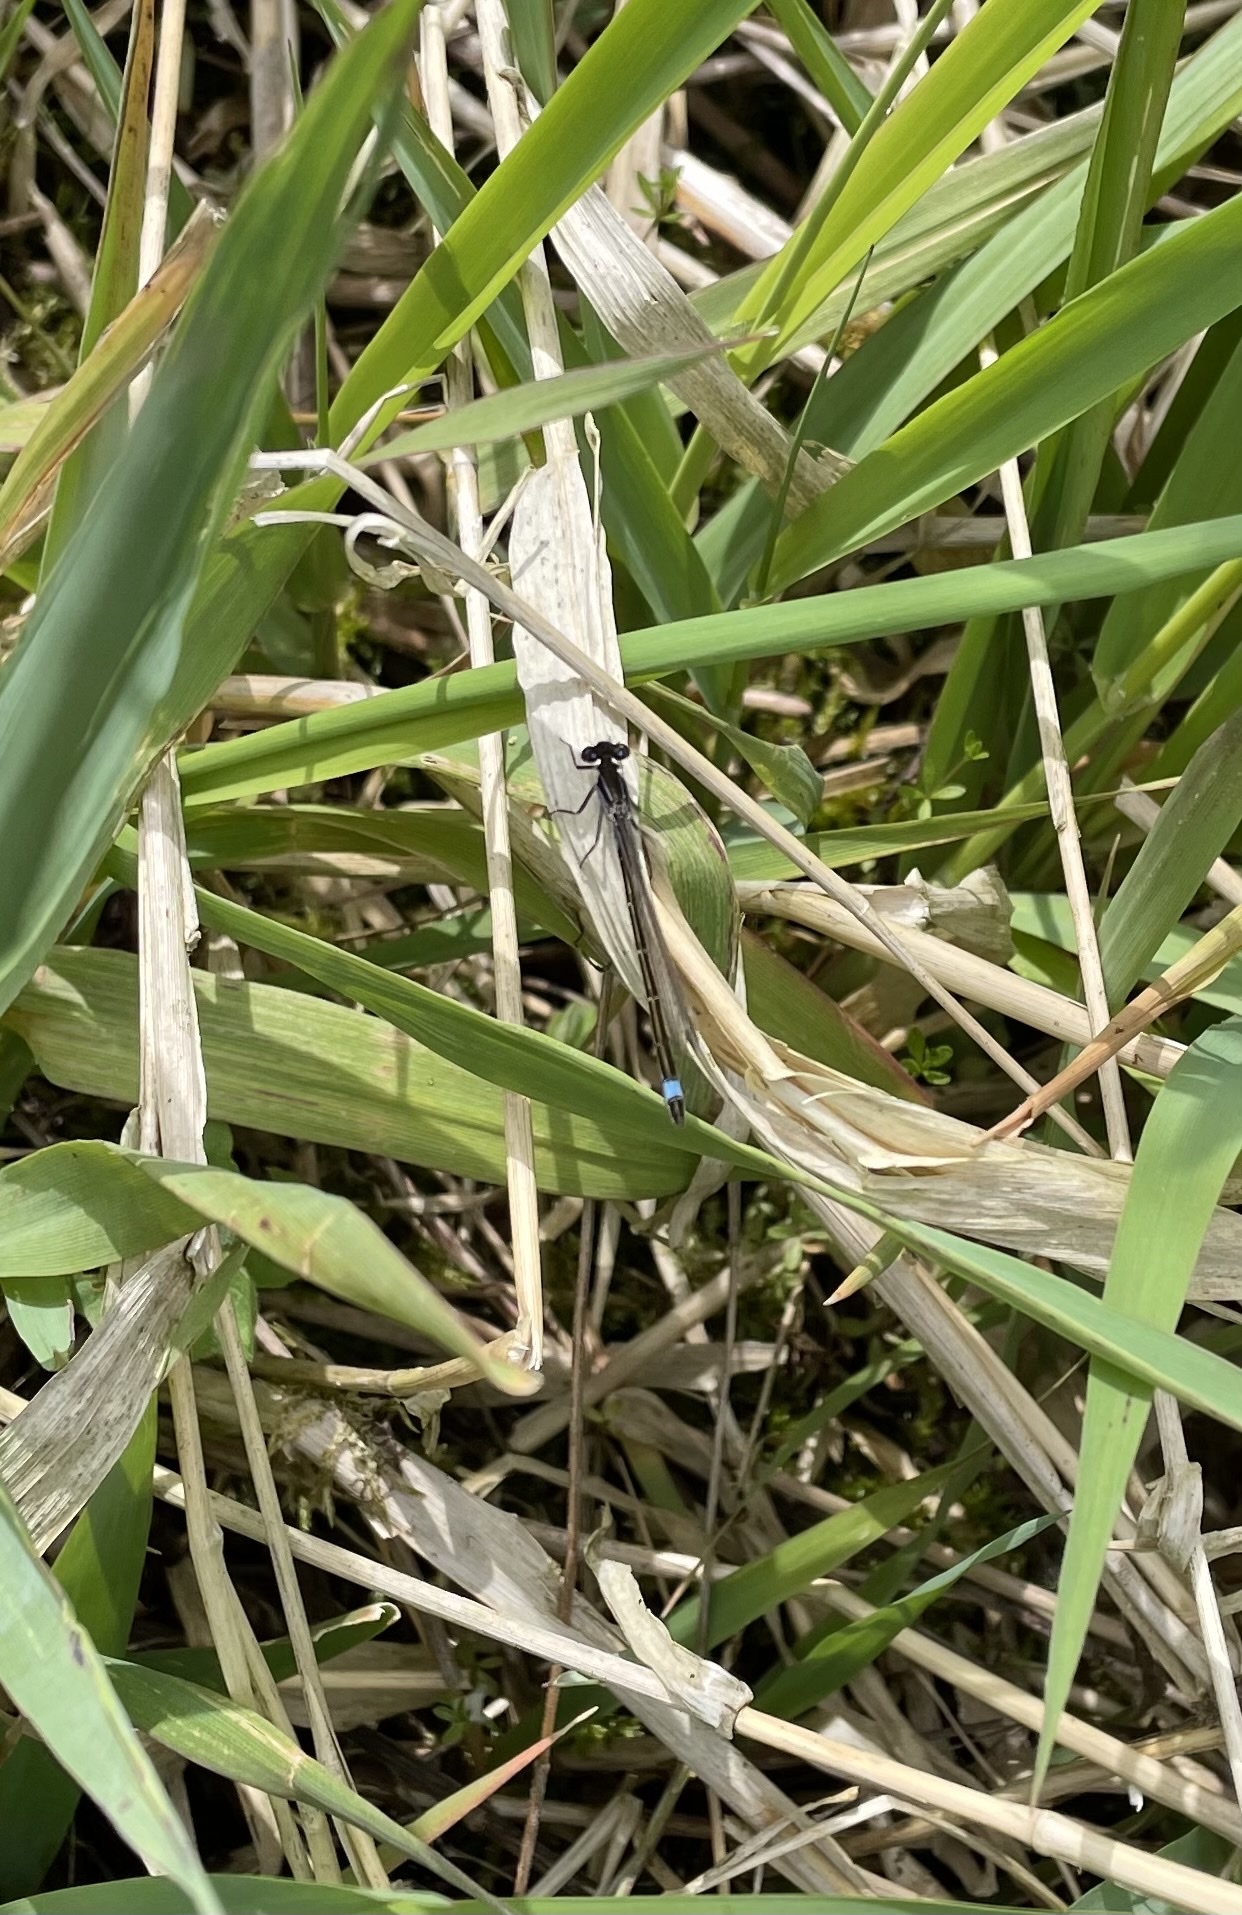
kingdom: Animalia
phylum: Arthropoda
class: Insecta
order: Odonata
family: Coenagrionidae
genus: Ischnura
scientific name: Ischnura elegans
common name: Blue-tailed damselfly
